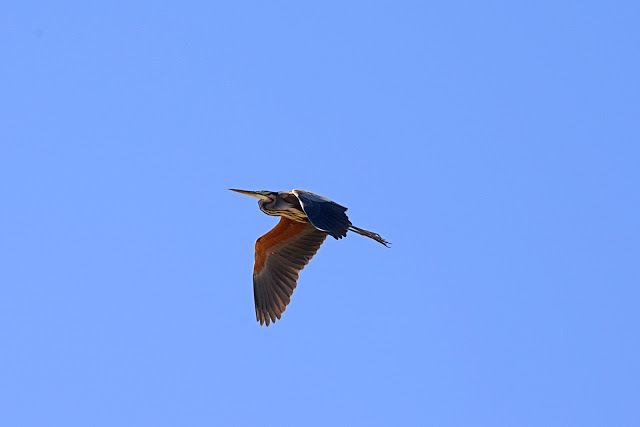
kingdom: Animalia
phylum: Chordata
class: Aves
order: Pelecaniformes
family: Ardeidae
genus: Ardea
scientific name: Ardea purpurea
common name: Purple heron
